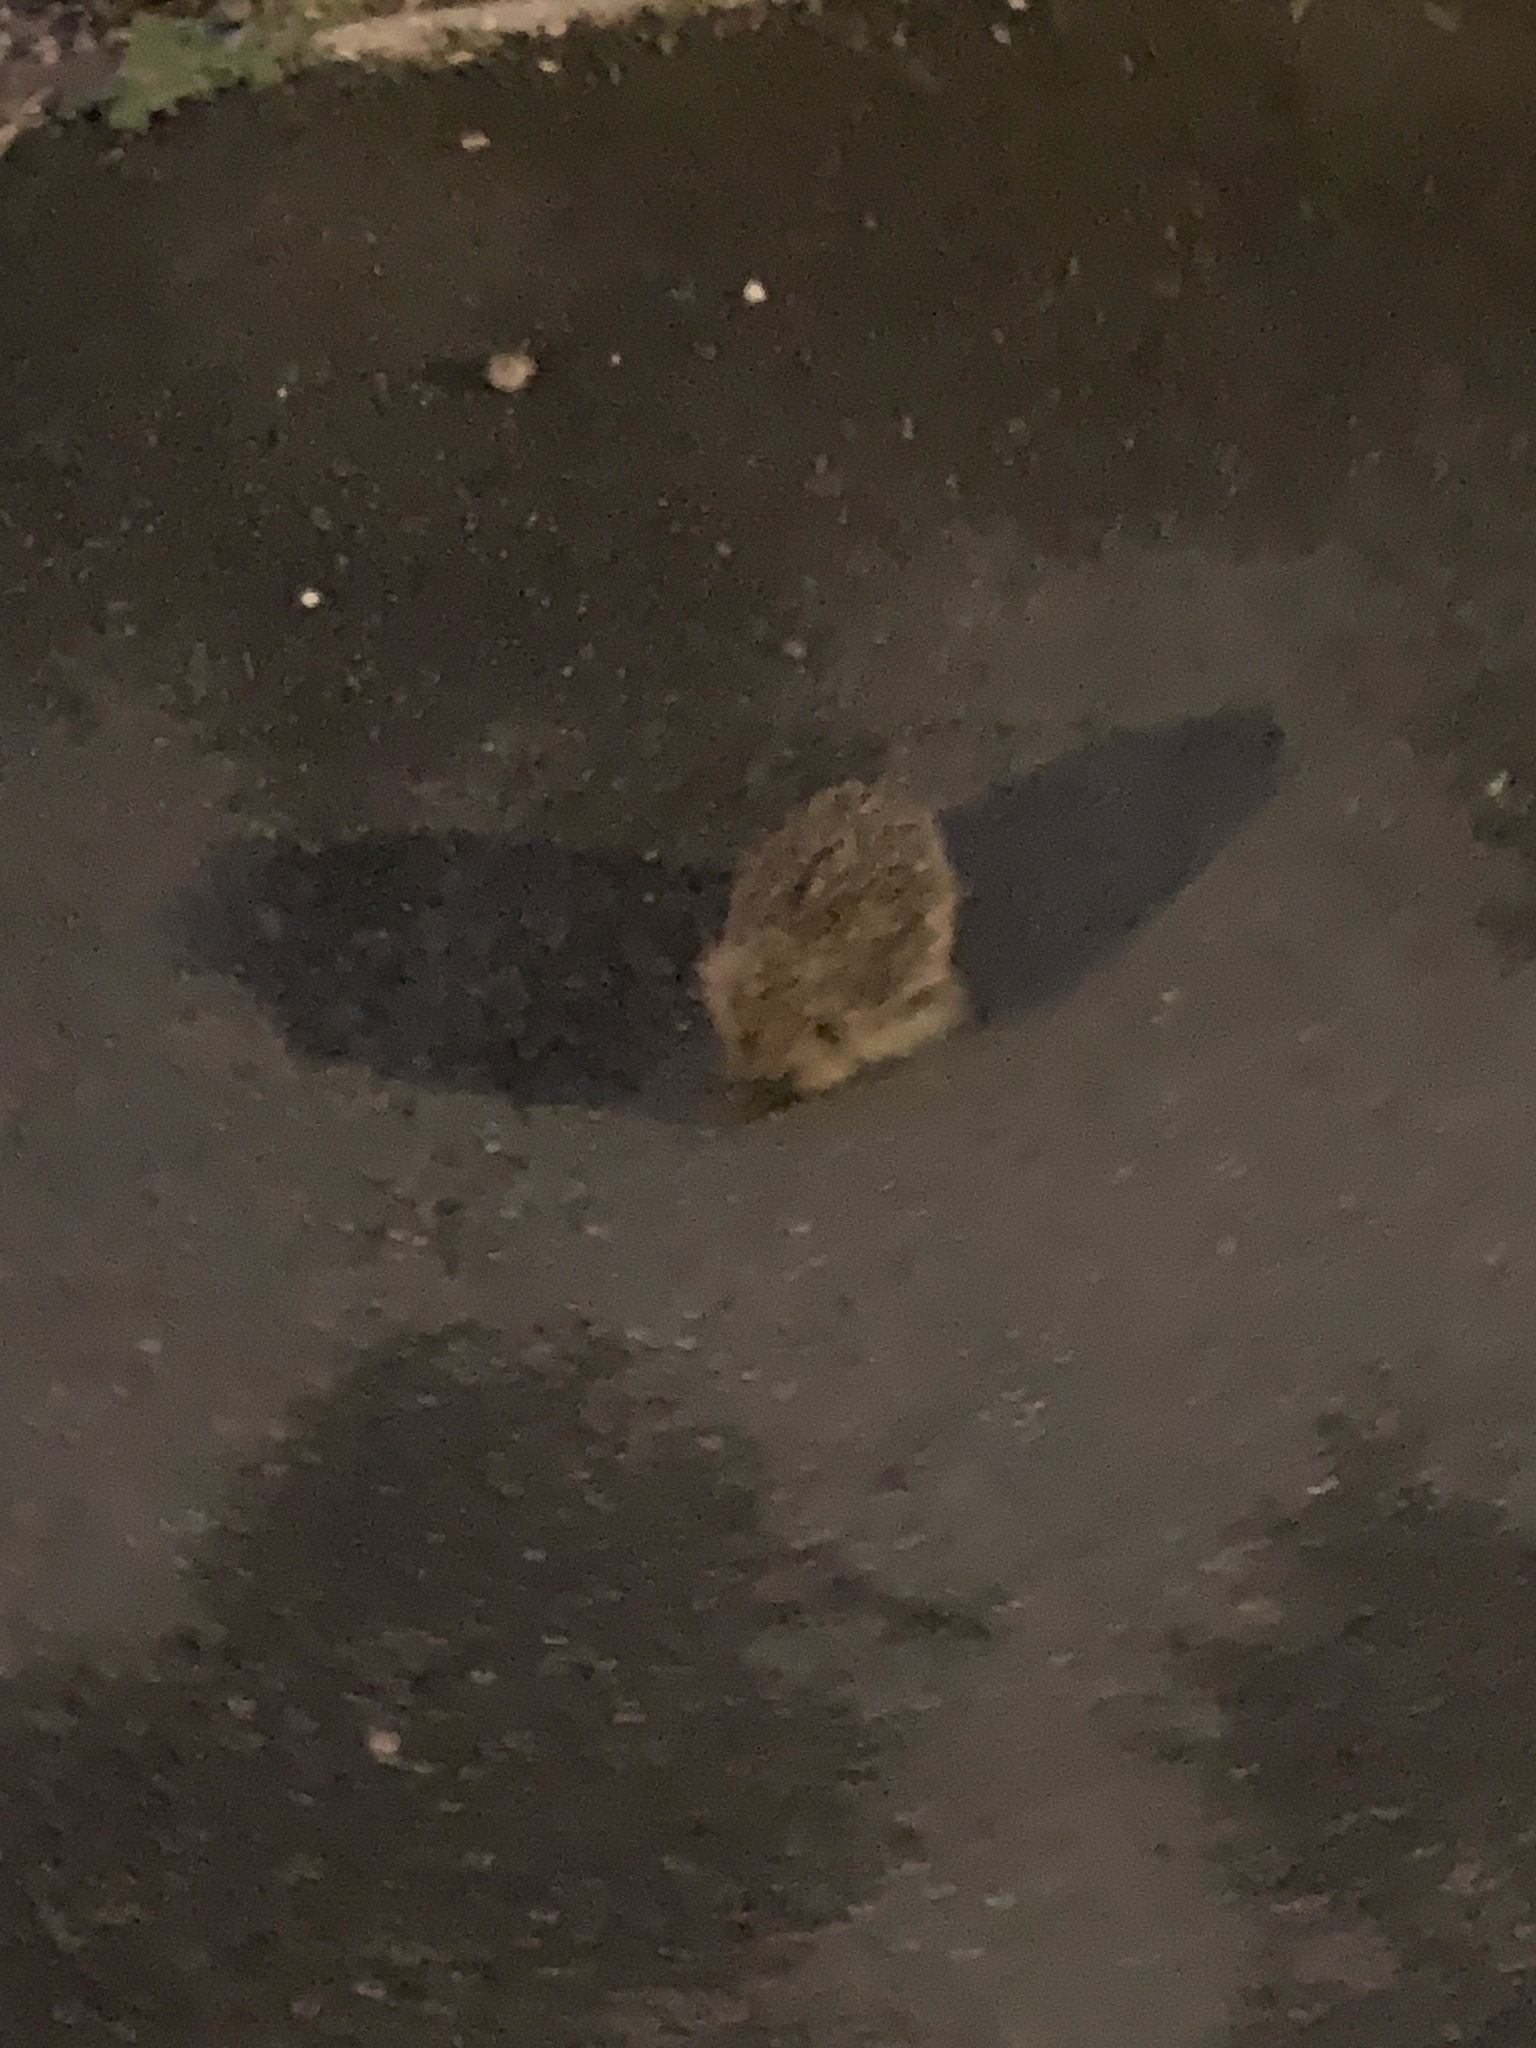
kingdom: Animalia
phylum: Chordata
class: Mammalia
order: Erinaceomorpha
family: Erinaceidae
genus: Erinaceus
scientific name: Erinaceus europaeus
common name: West european hedgehog
